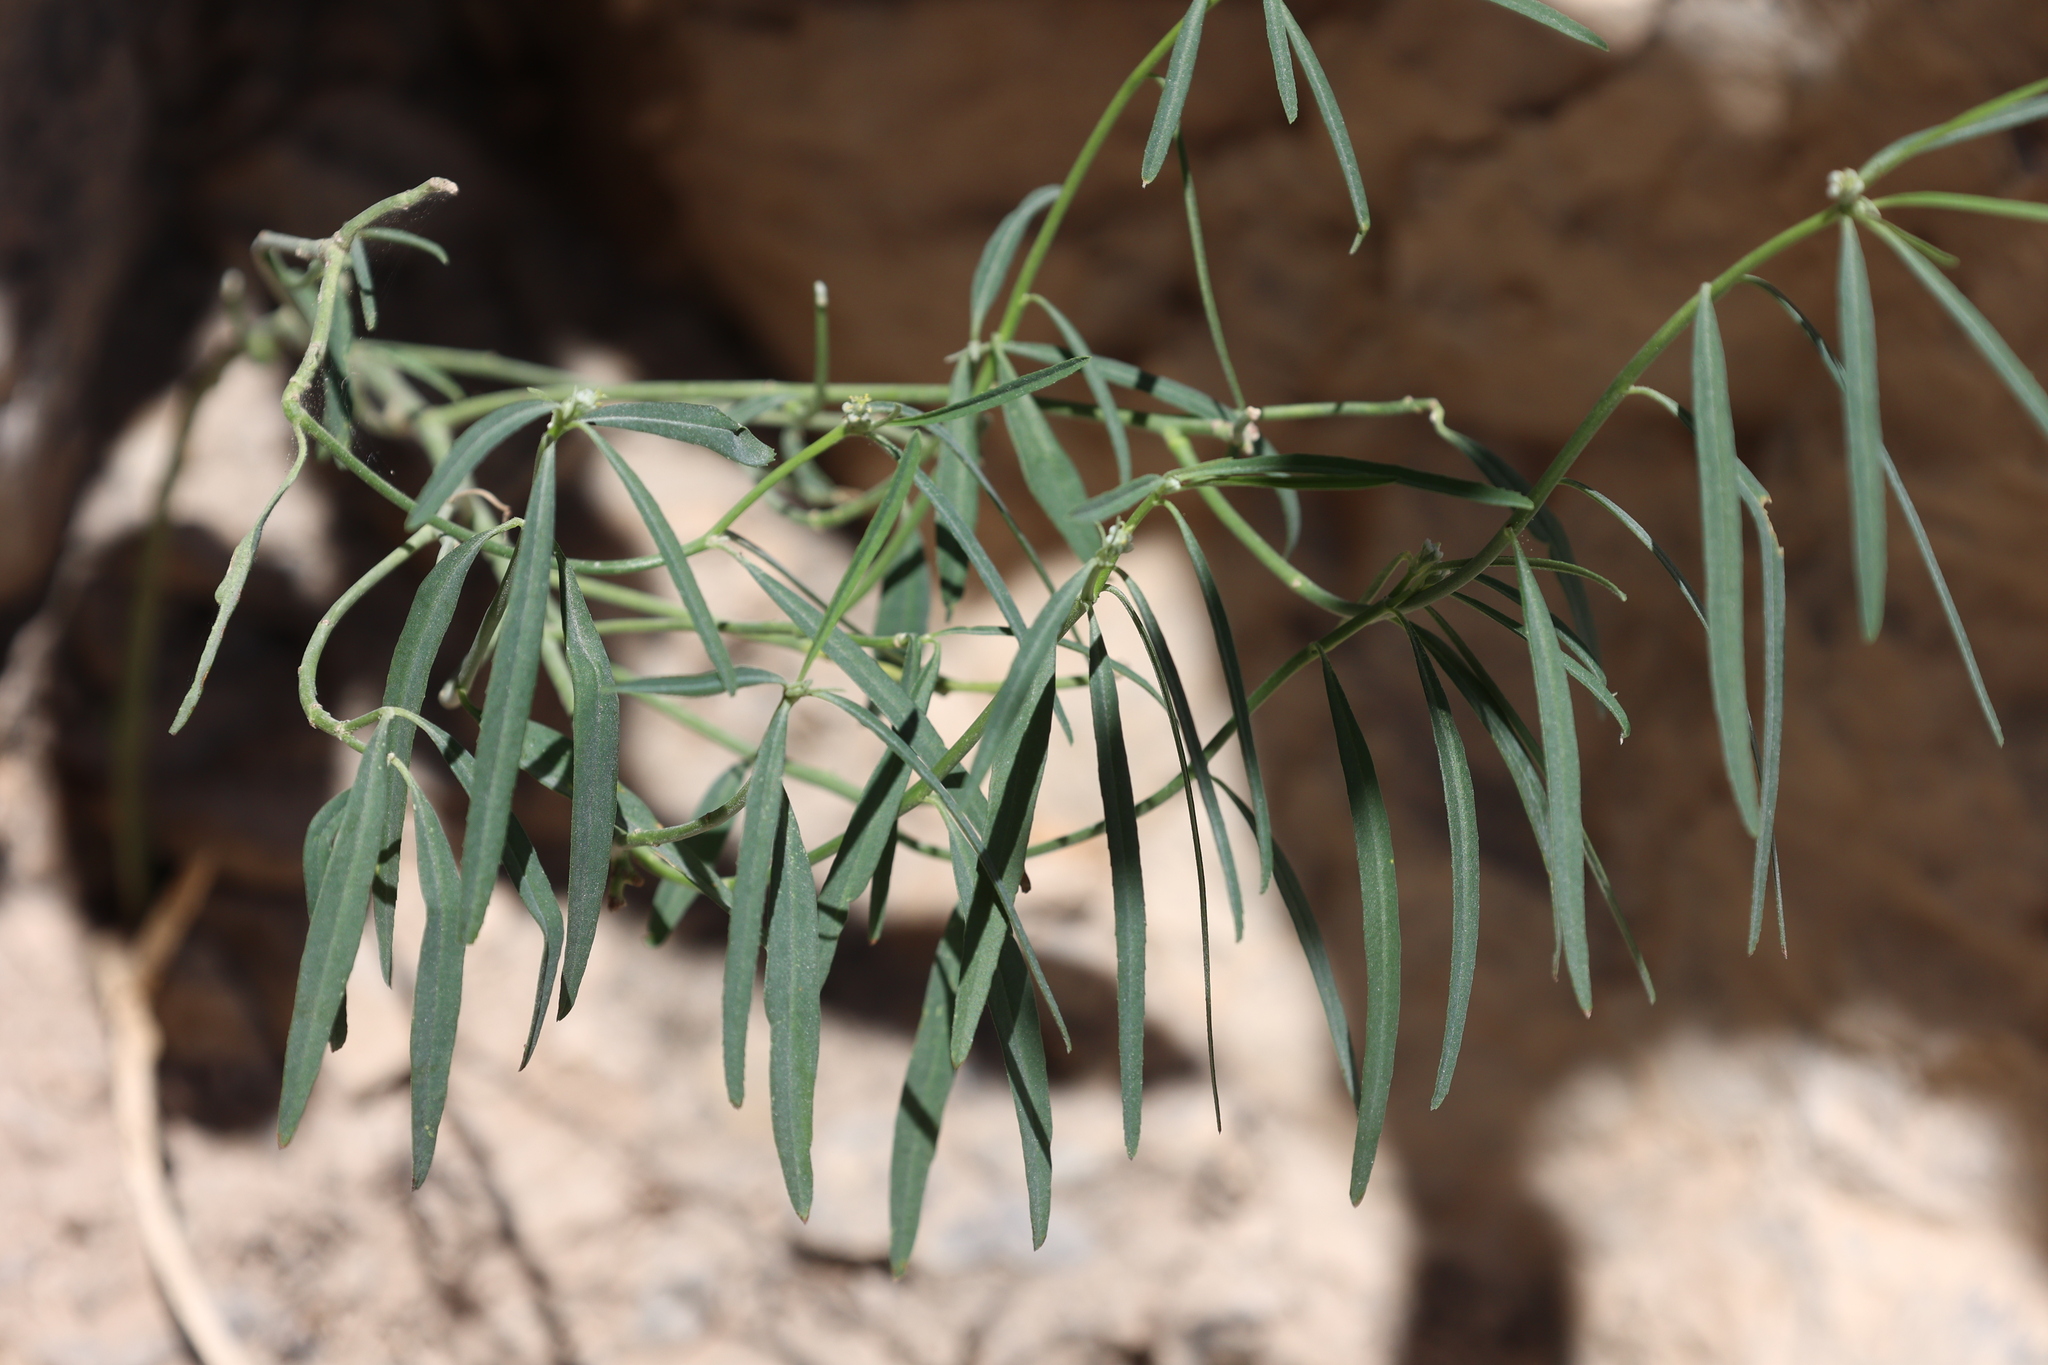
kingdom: Plantae
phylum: Tracheophyta
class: Magnoliopsida
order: Malpighiales
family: Euphorbiaceae
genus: Euphorbia
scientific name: Euphorbia eriantha
